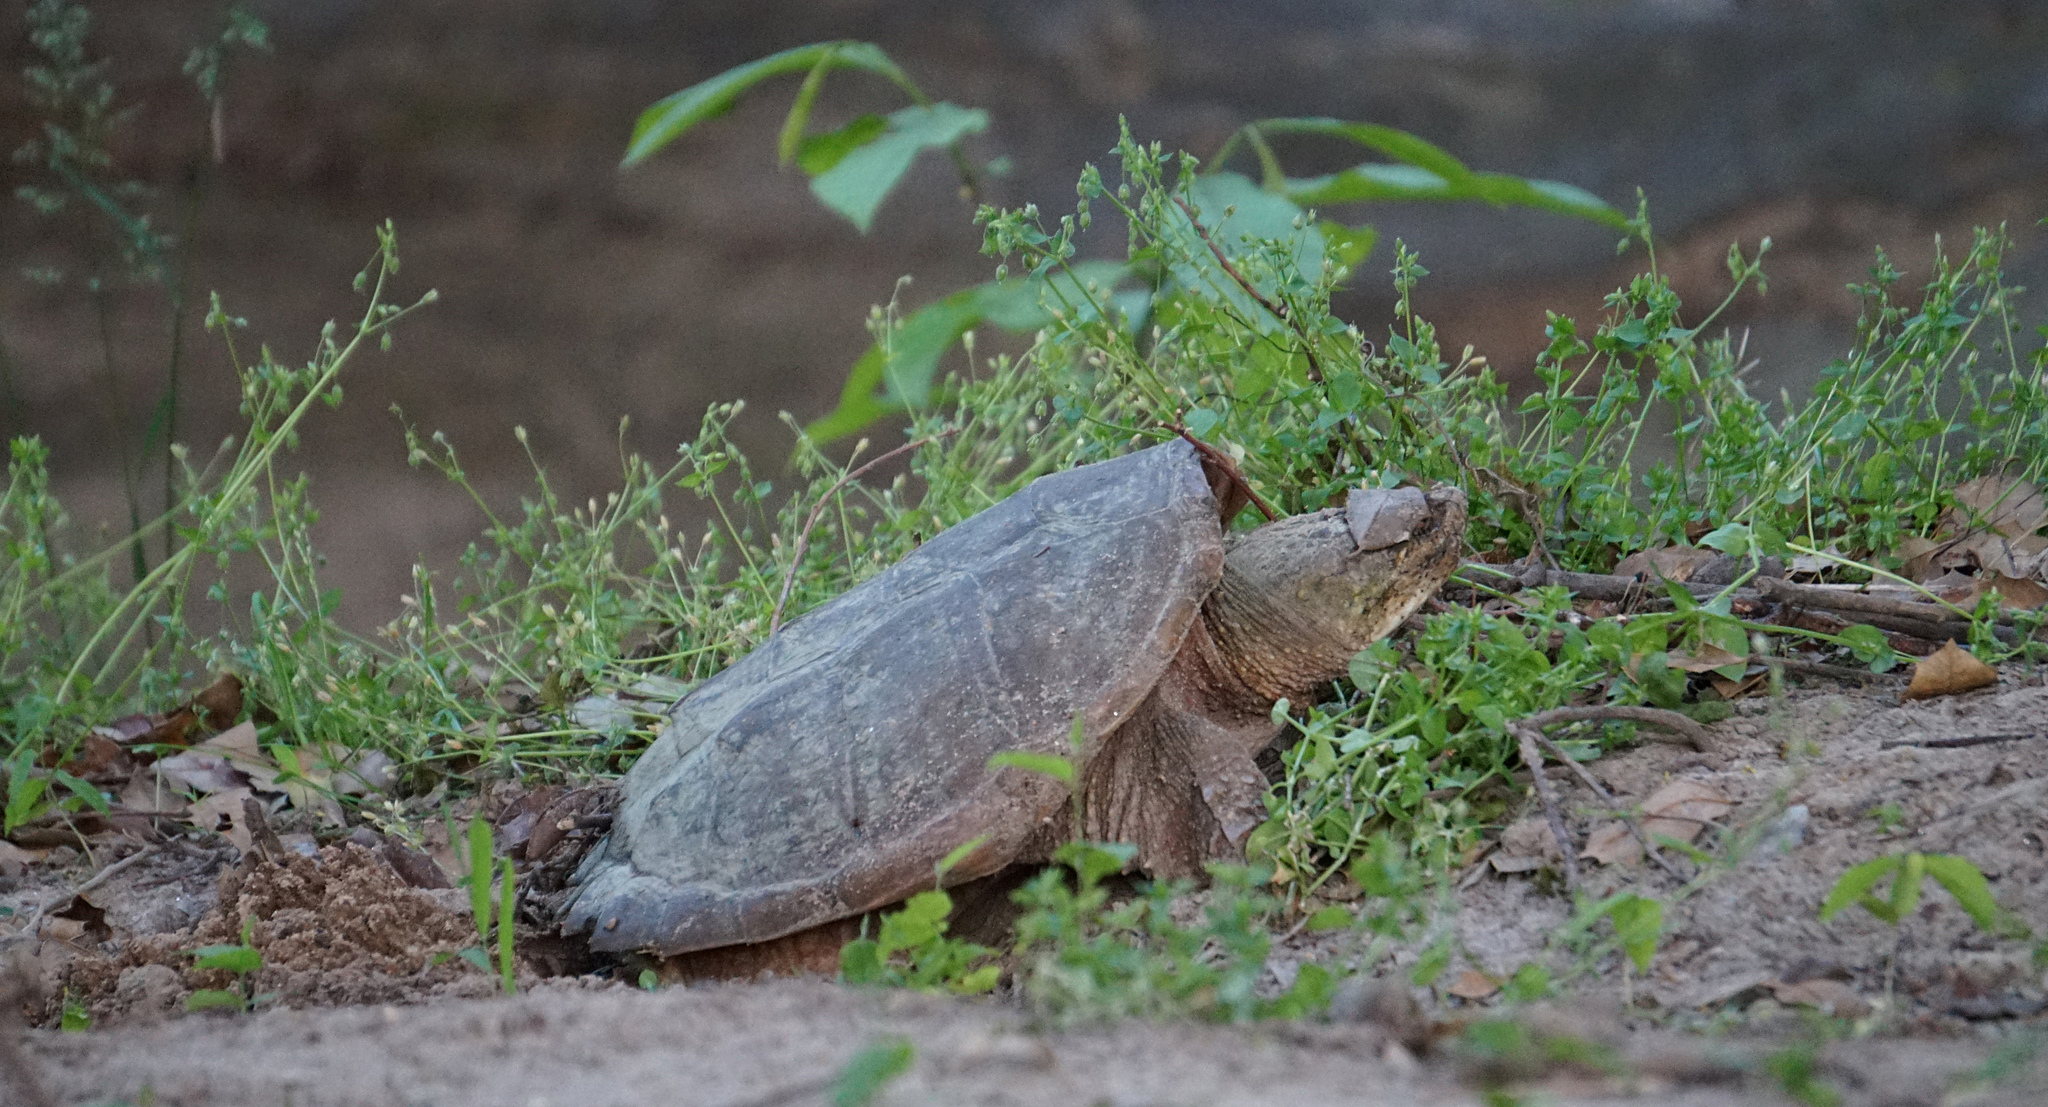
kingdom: Animalia
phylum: Chordata
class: Testudines
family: Chelydridae
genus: Chelydra
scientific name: Chelydra serpentina
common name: Common snapping turtle
